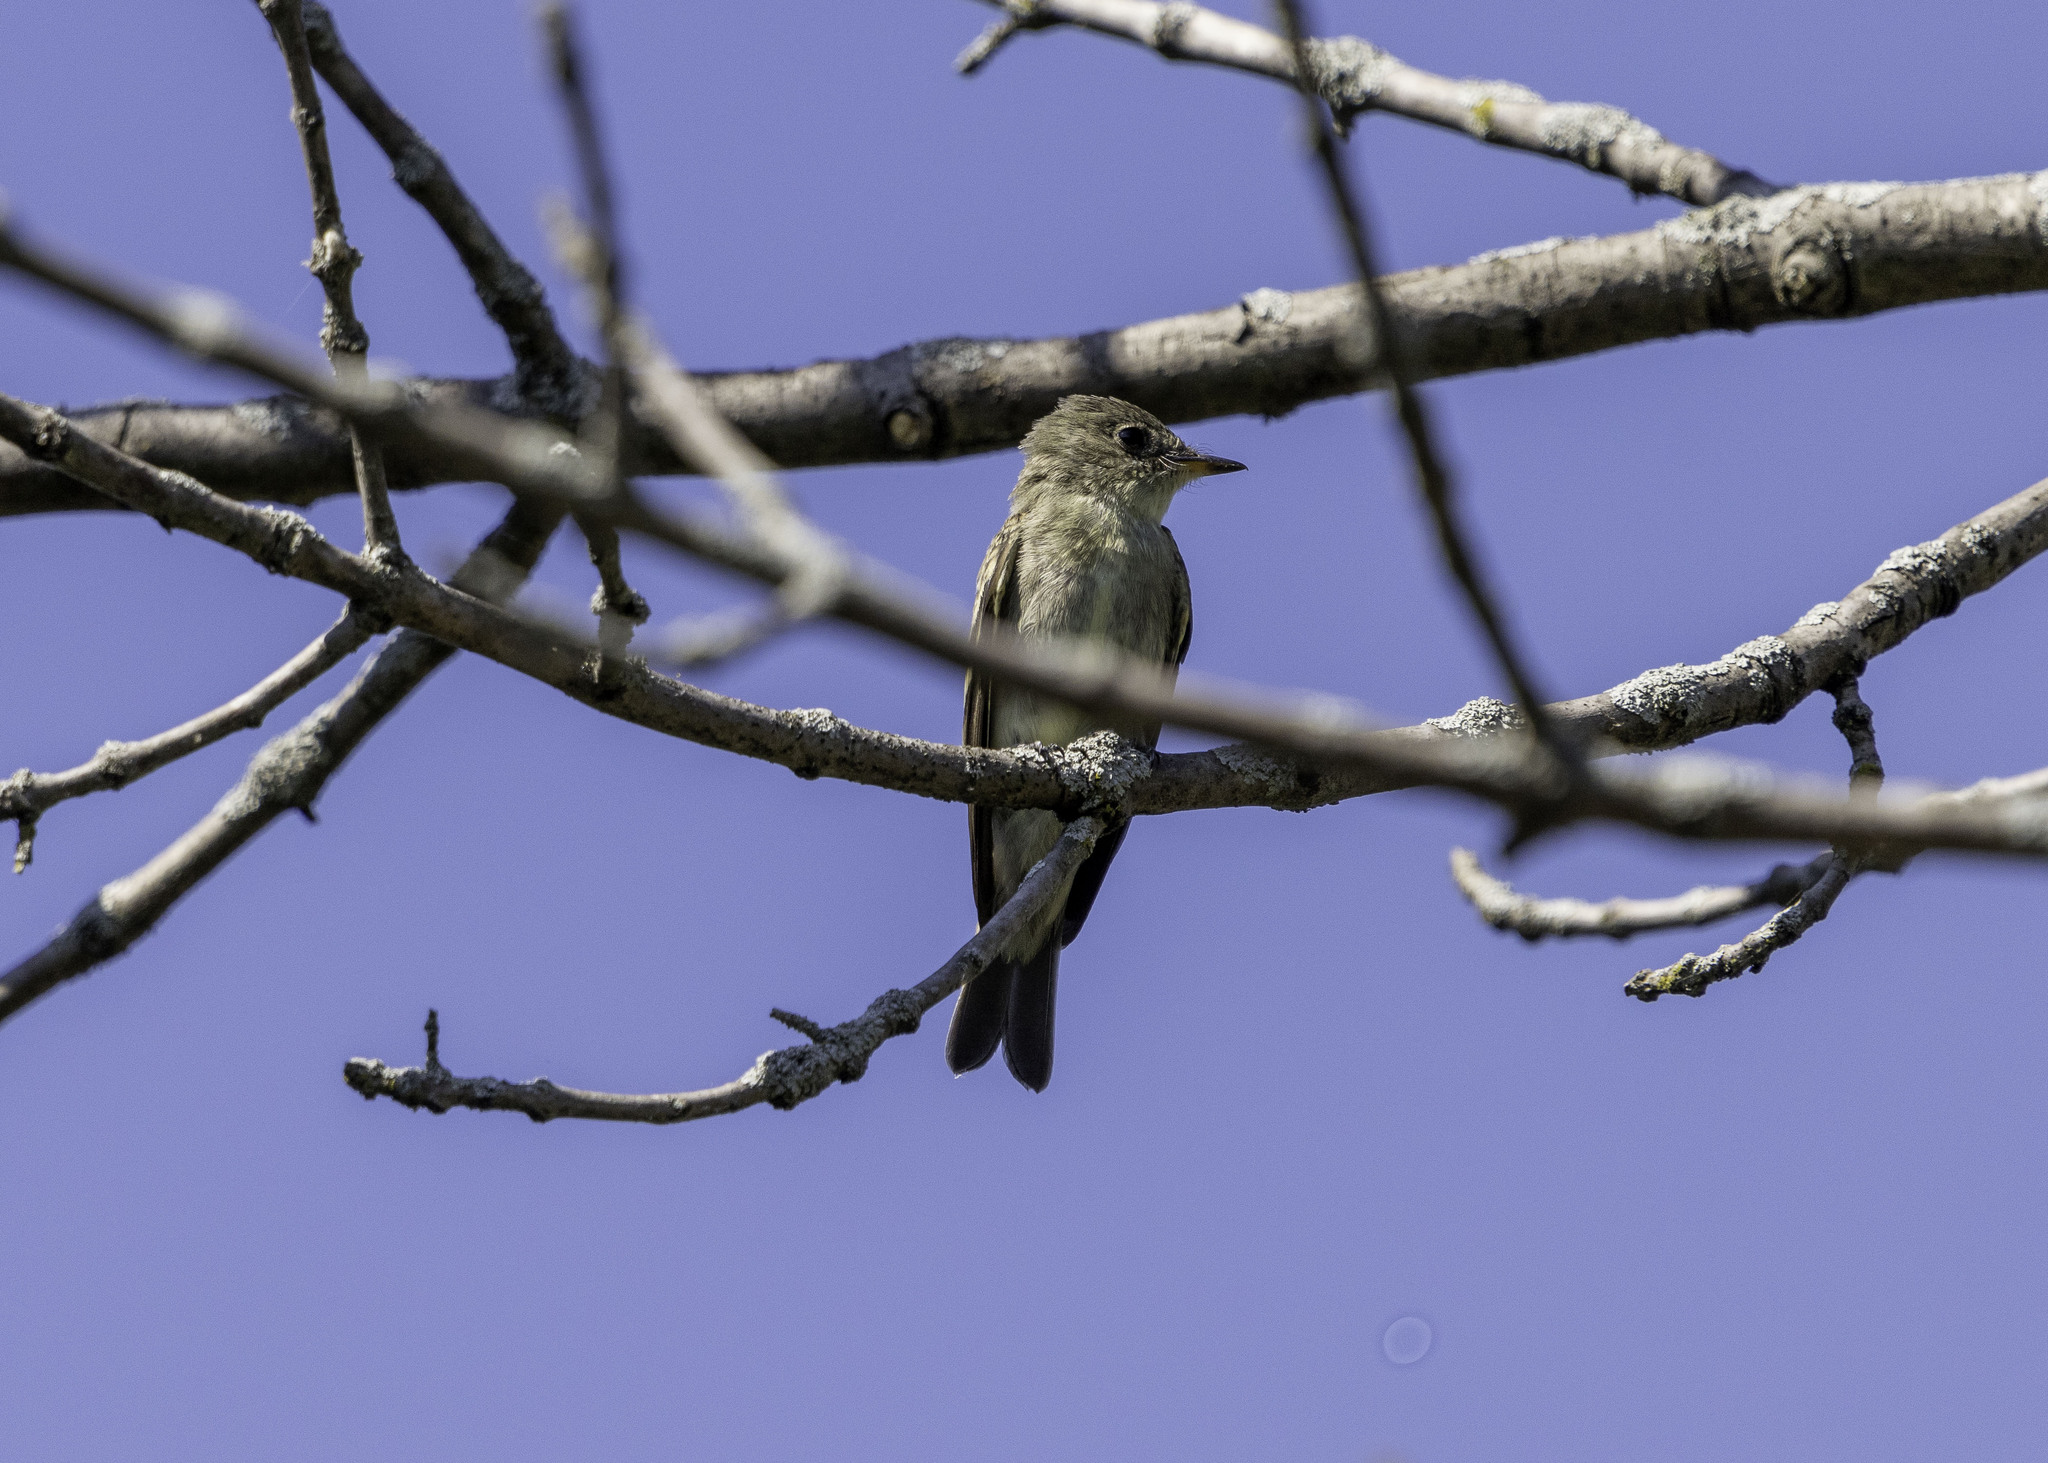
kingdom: Animalia
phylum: Chordata
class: Aves
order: Passeriformes
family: Tyrannidae
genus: Contopus
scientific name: Contopus virens
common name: Eastern wood-pewee
